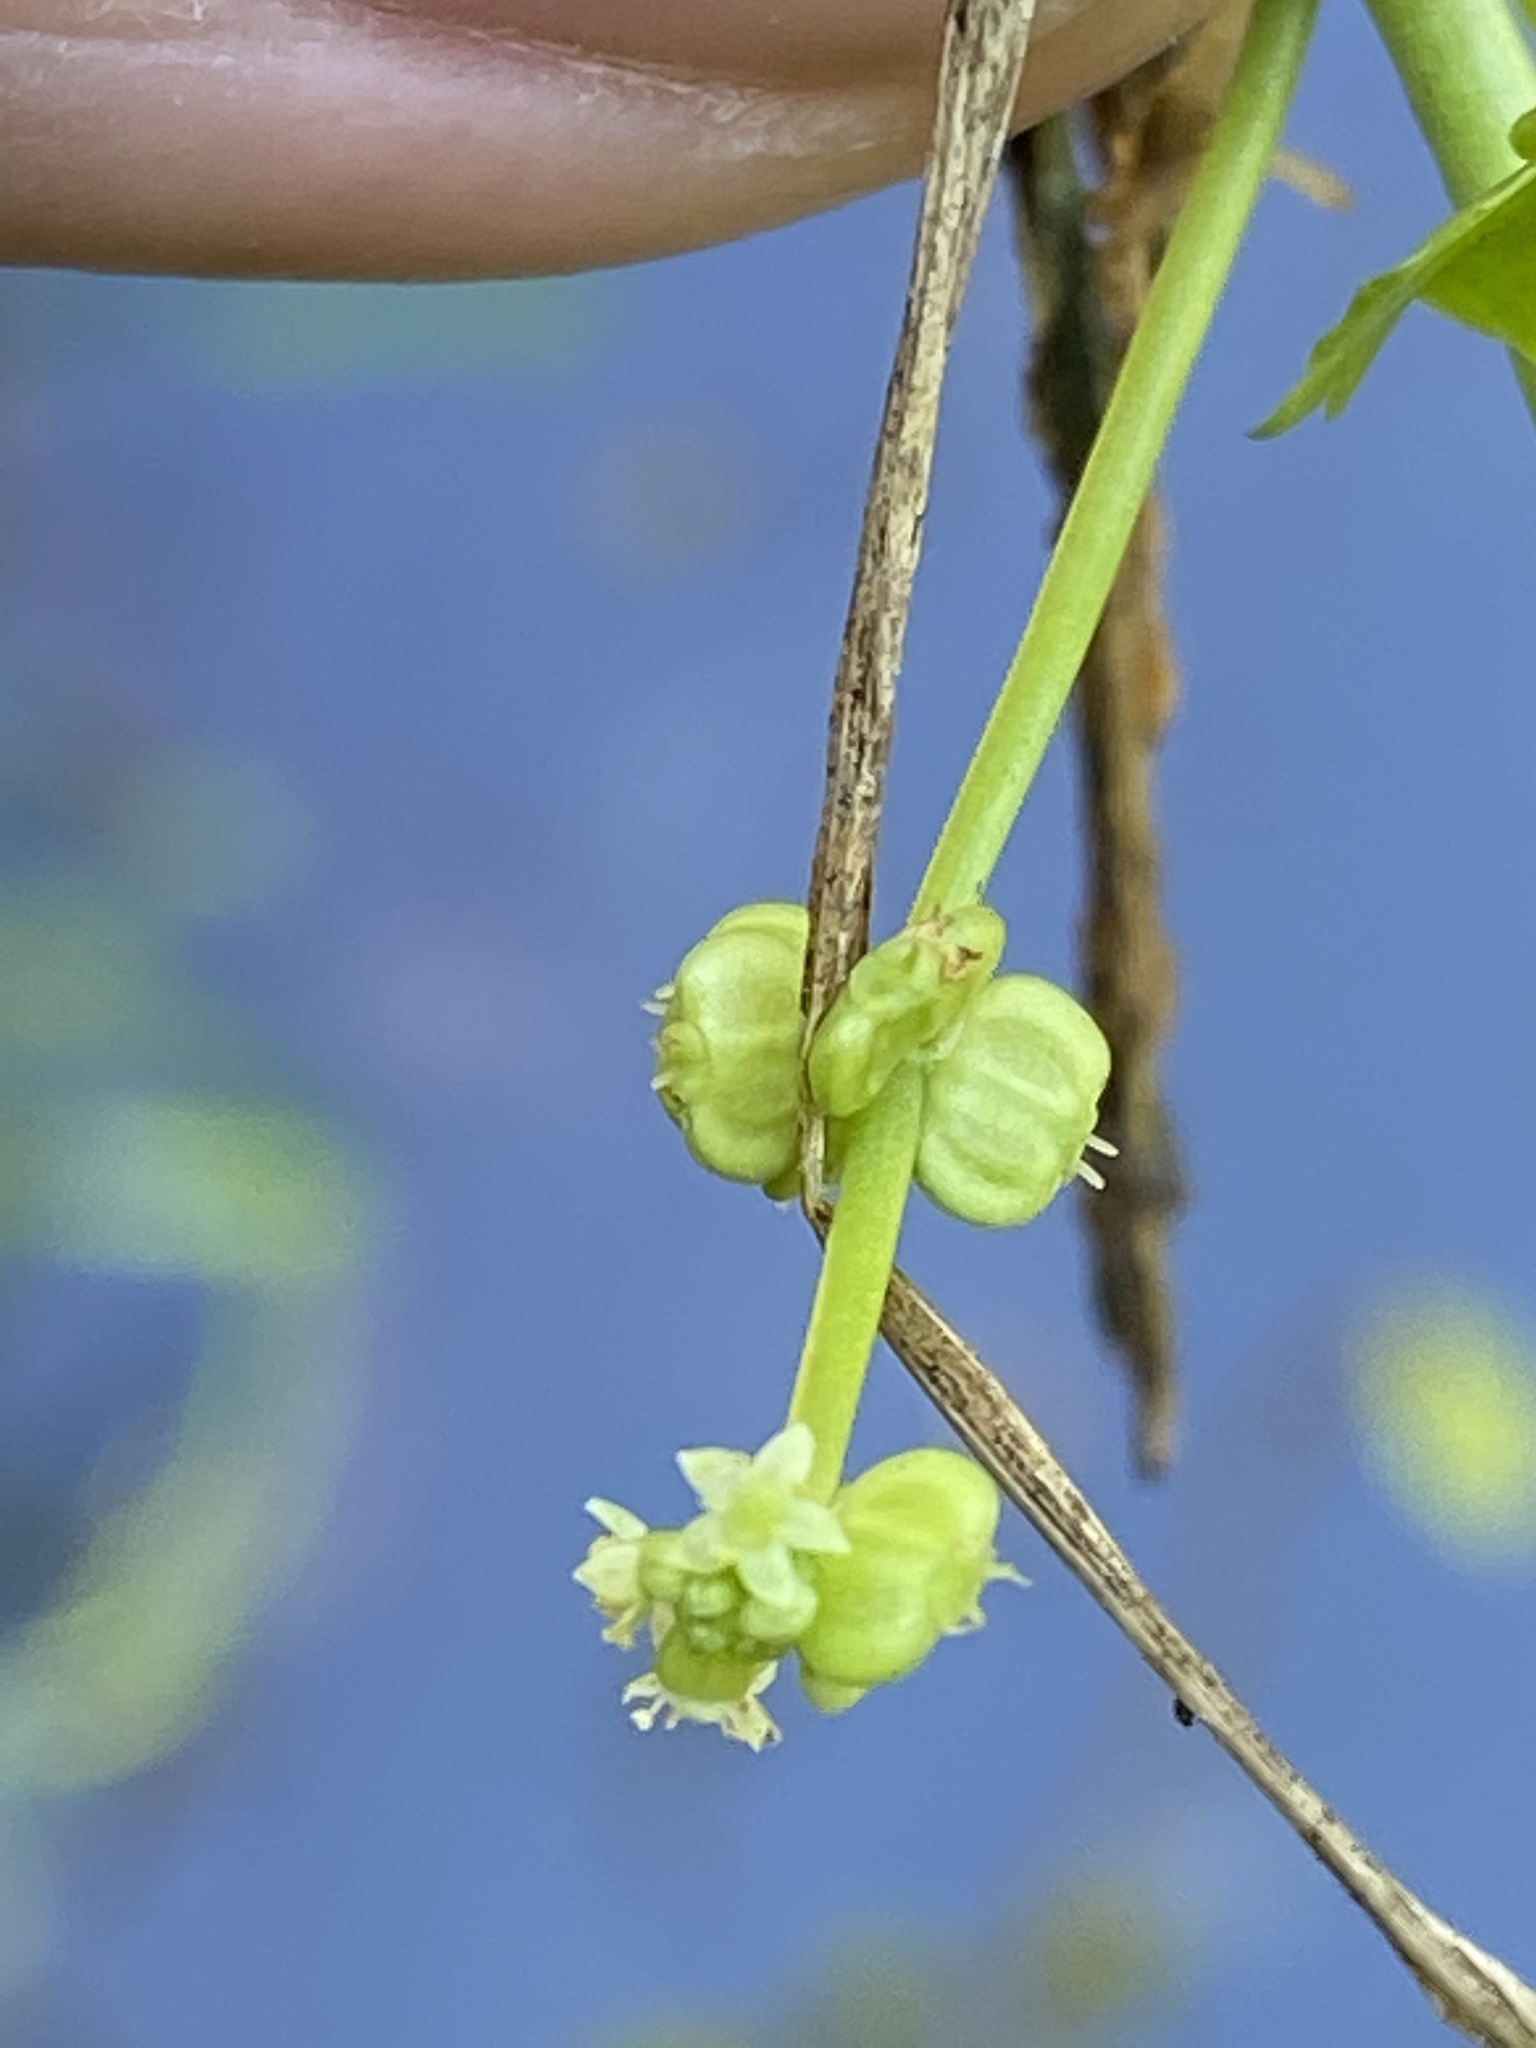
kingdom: Plantae
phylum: Tracheophyta
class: Magnoliopsida
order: Apiales
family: Araliaceae
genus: Hydrocotyle
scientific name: Hydrocotyle verticillata
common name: Whorled marshpennywort
